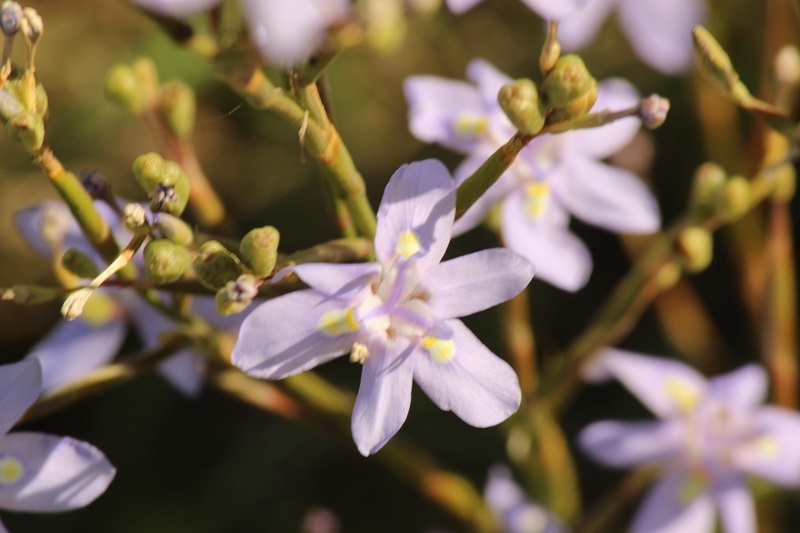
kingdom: Plantae
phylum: Tracheophyta
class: Liliopsida
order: Asparagales
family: Iridaceae
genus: Moraea
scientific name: Moraea polystachya
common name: Blue-tulip
